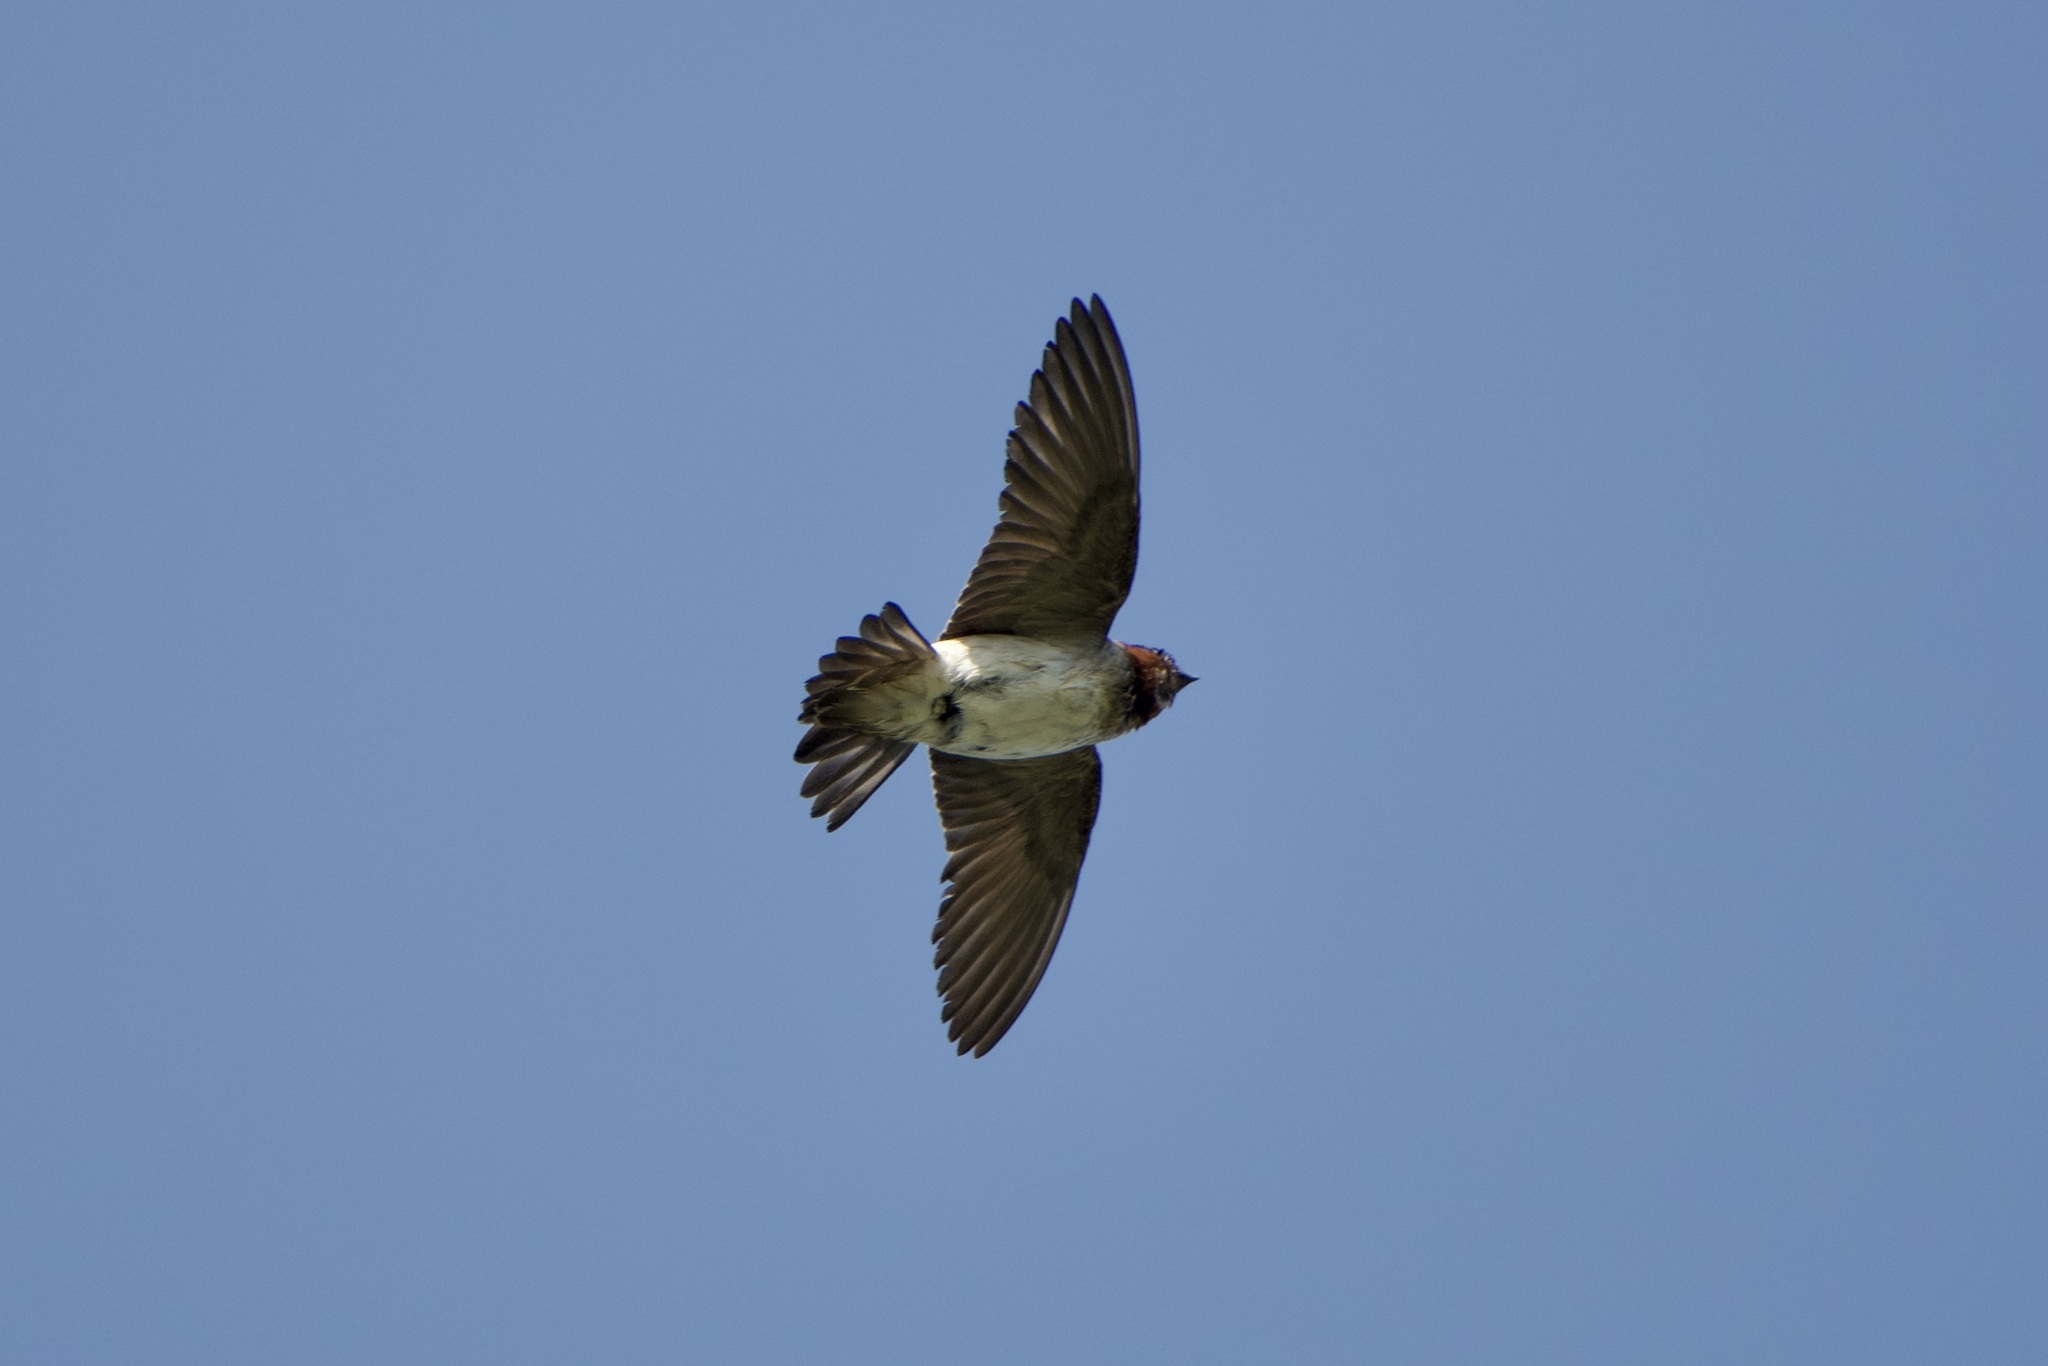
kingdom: Animalia
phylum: Chordata
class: Aves
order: Passeriformes
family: Hirundinidae
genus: Petrochelidon
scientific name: Petrochelidon pyrrhonota
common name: American cliff swallow
